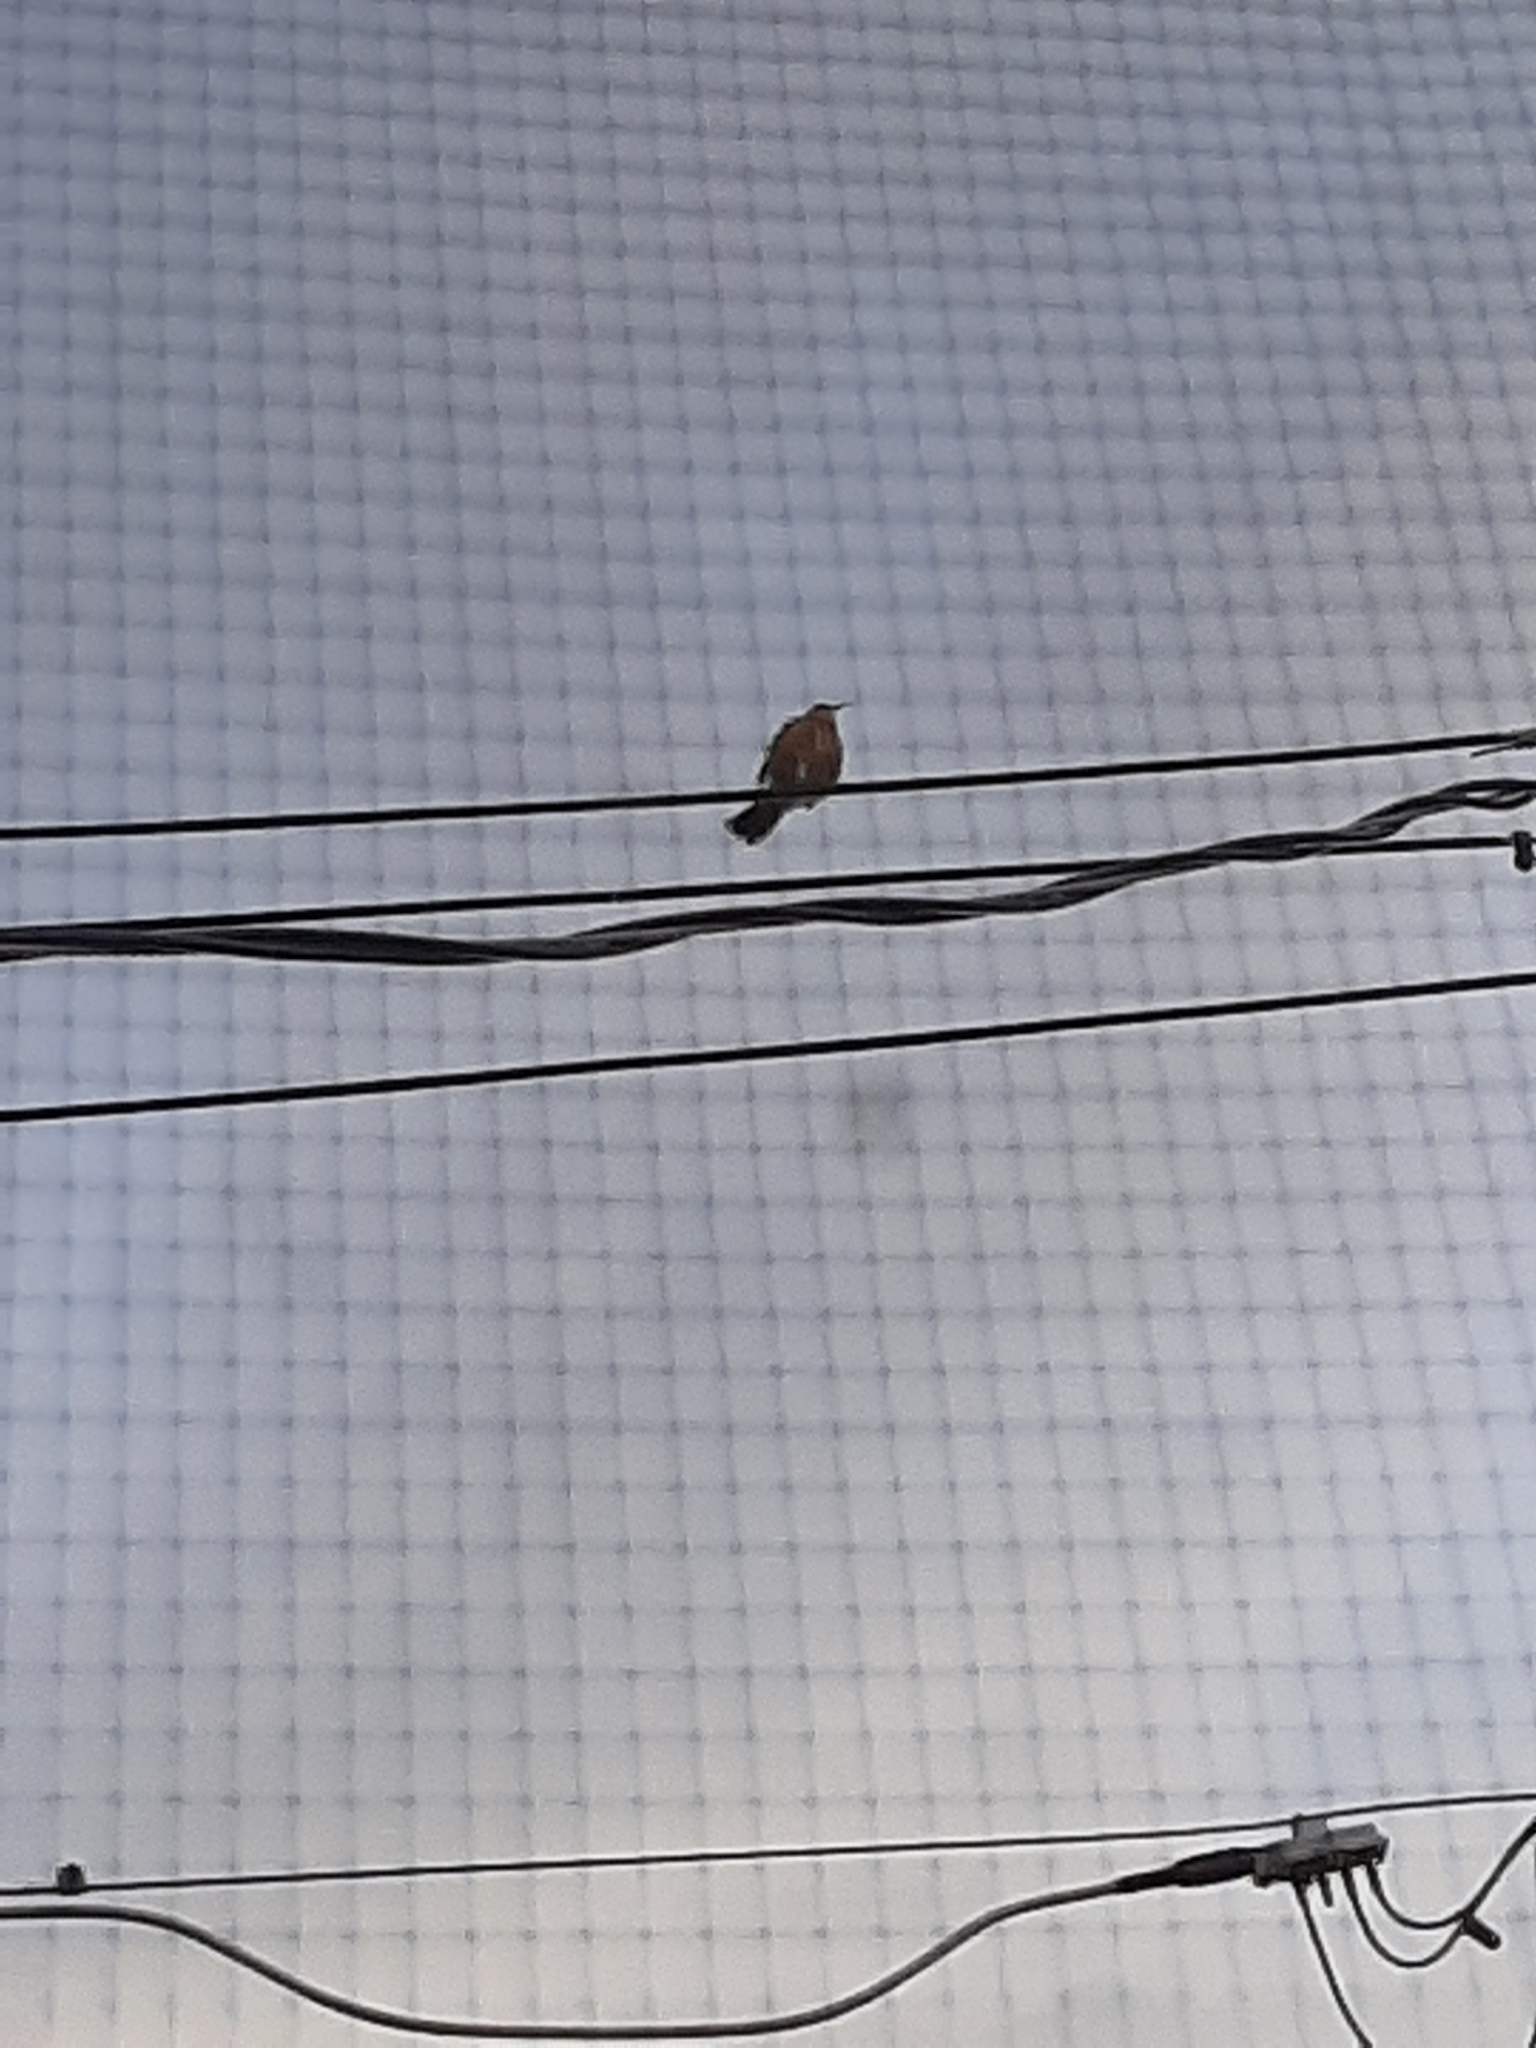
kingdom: Animalia
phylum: Chordata
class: Aves
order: Passeriformes
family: Turdidae
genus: Turdus
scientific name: Turdus migratorius
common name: American robin
